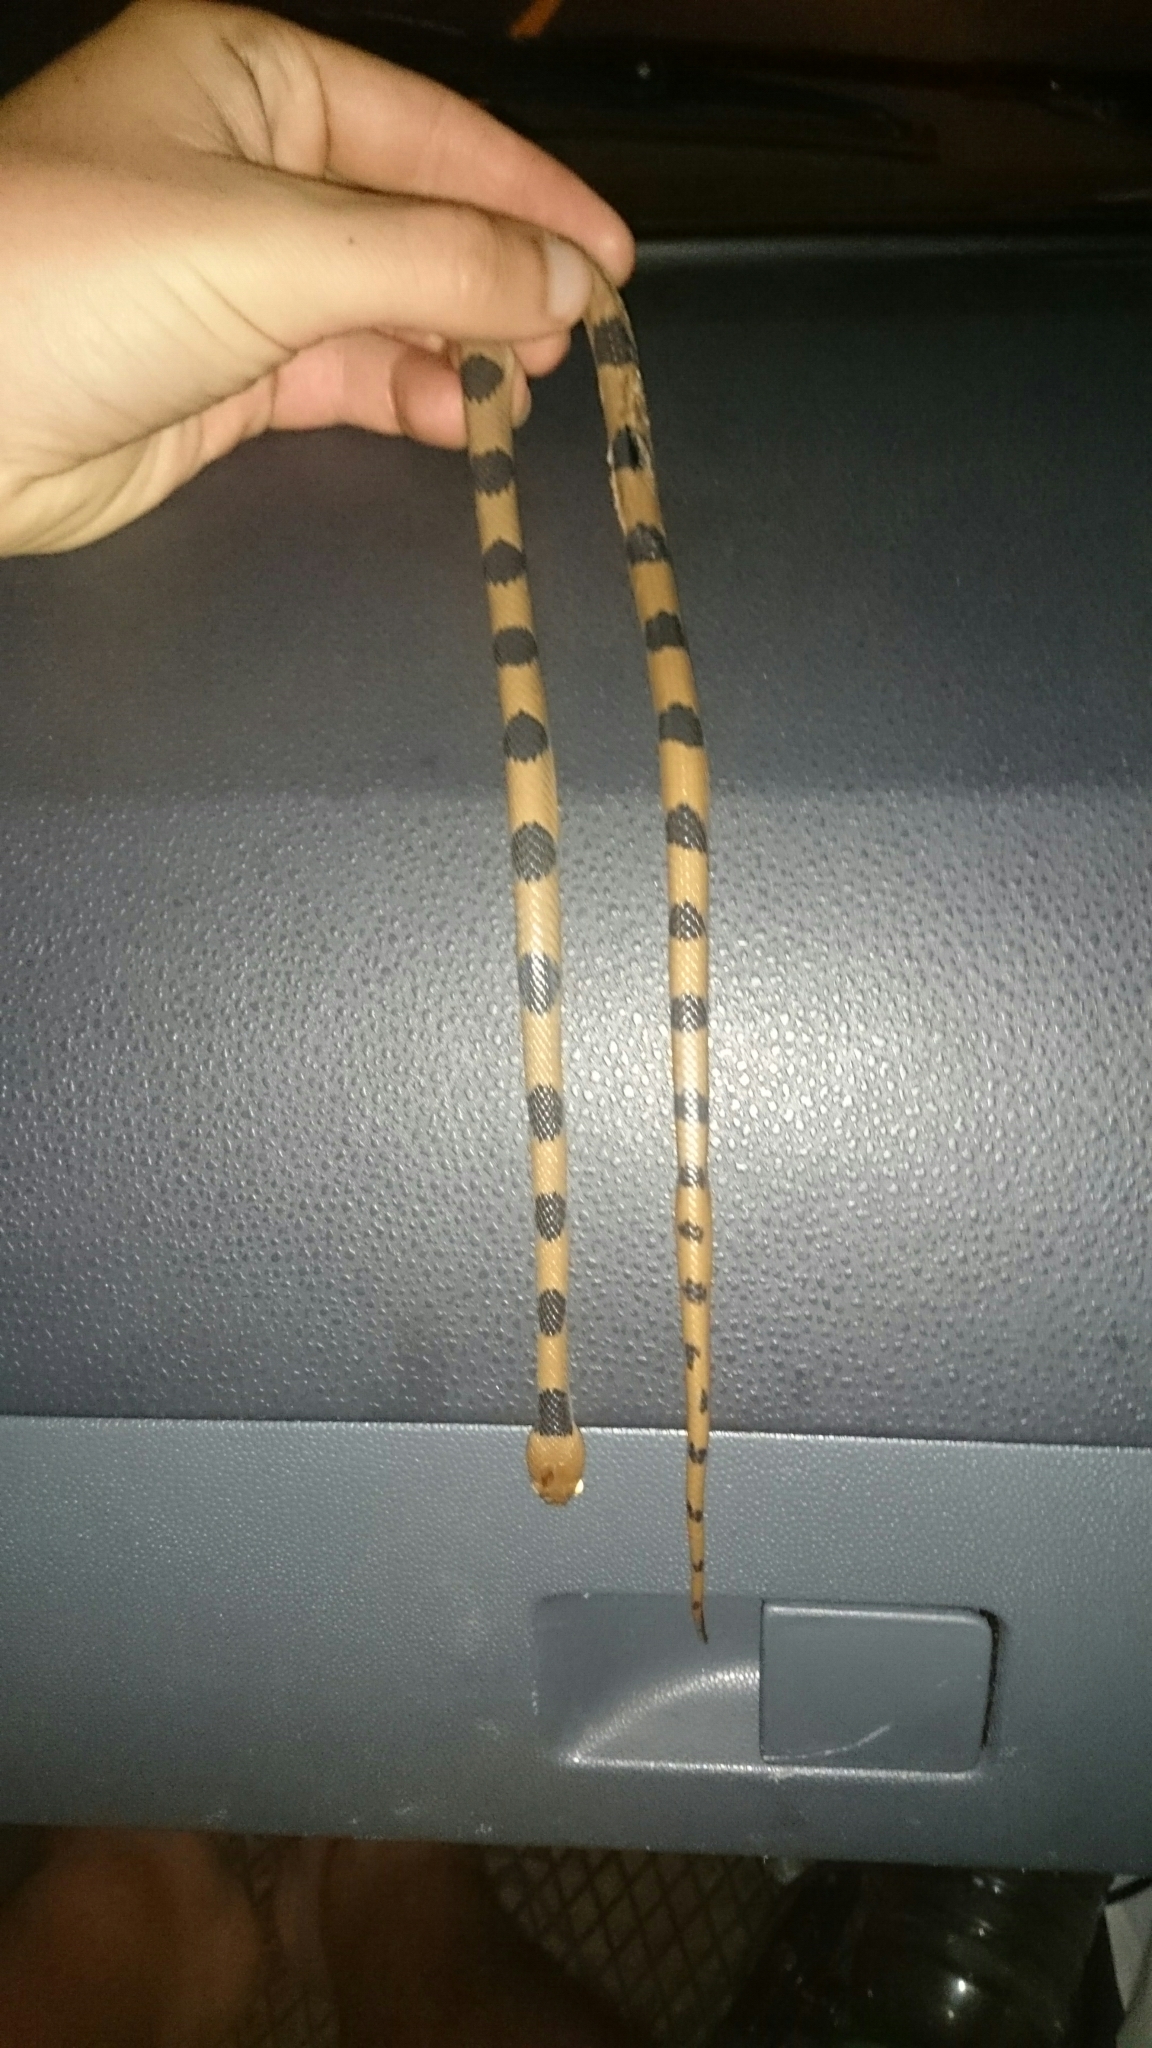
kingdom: Animalia
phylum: Chordata
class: Squamata
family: Colubridae
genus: Telescopus
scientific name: Telescopus semiannulatus
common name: Common tiger snake
